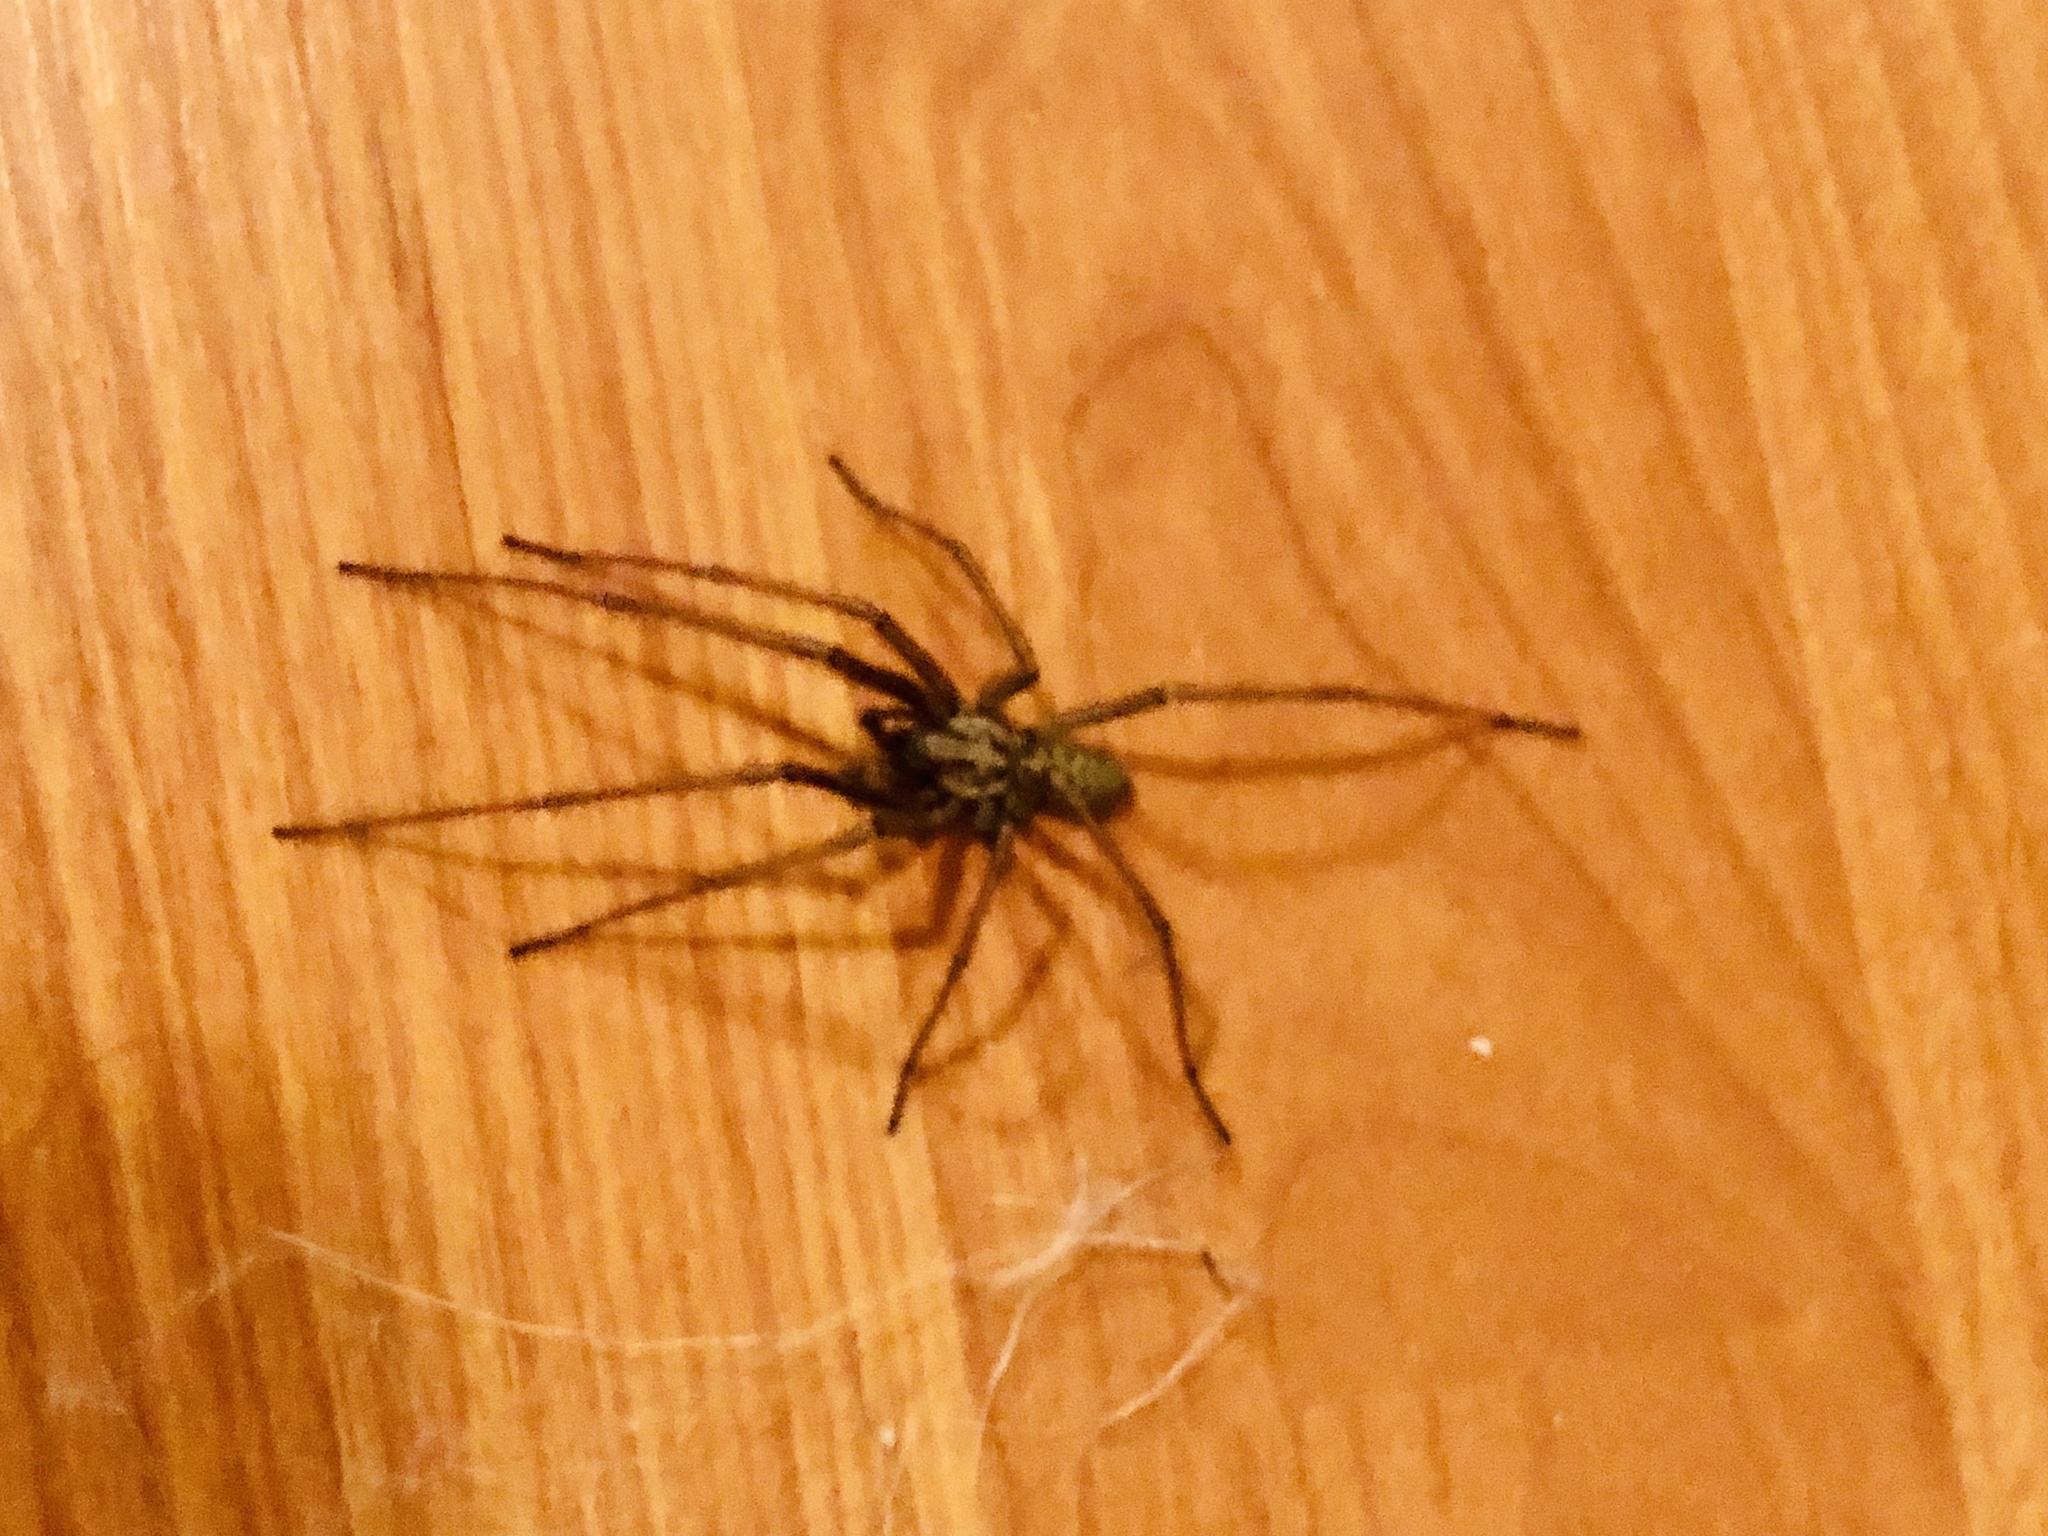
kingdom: Animalia
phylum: Arthropoda
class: Arachnida
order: Araneae
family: Agelenidae
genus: Eratigena
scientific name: Eratigena duellica
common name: Giant house spider
